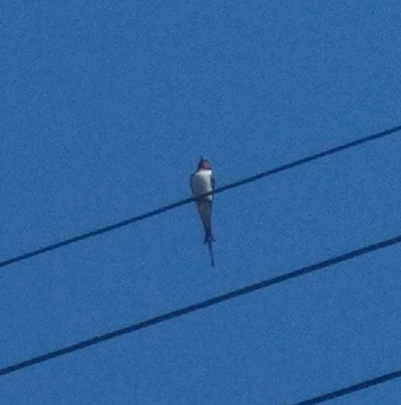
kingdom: Animalia
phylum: Chordata
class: Aves
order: Passeriformes
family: Hirundinidae
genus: Hirundo
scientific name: Hirundo rustica
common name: Barn swallow
